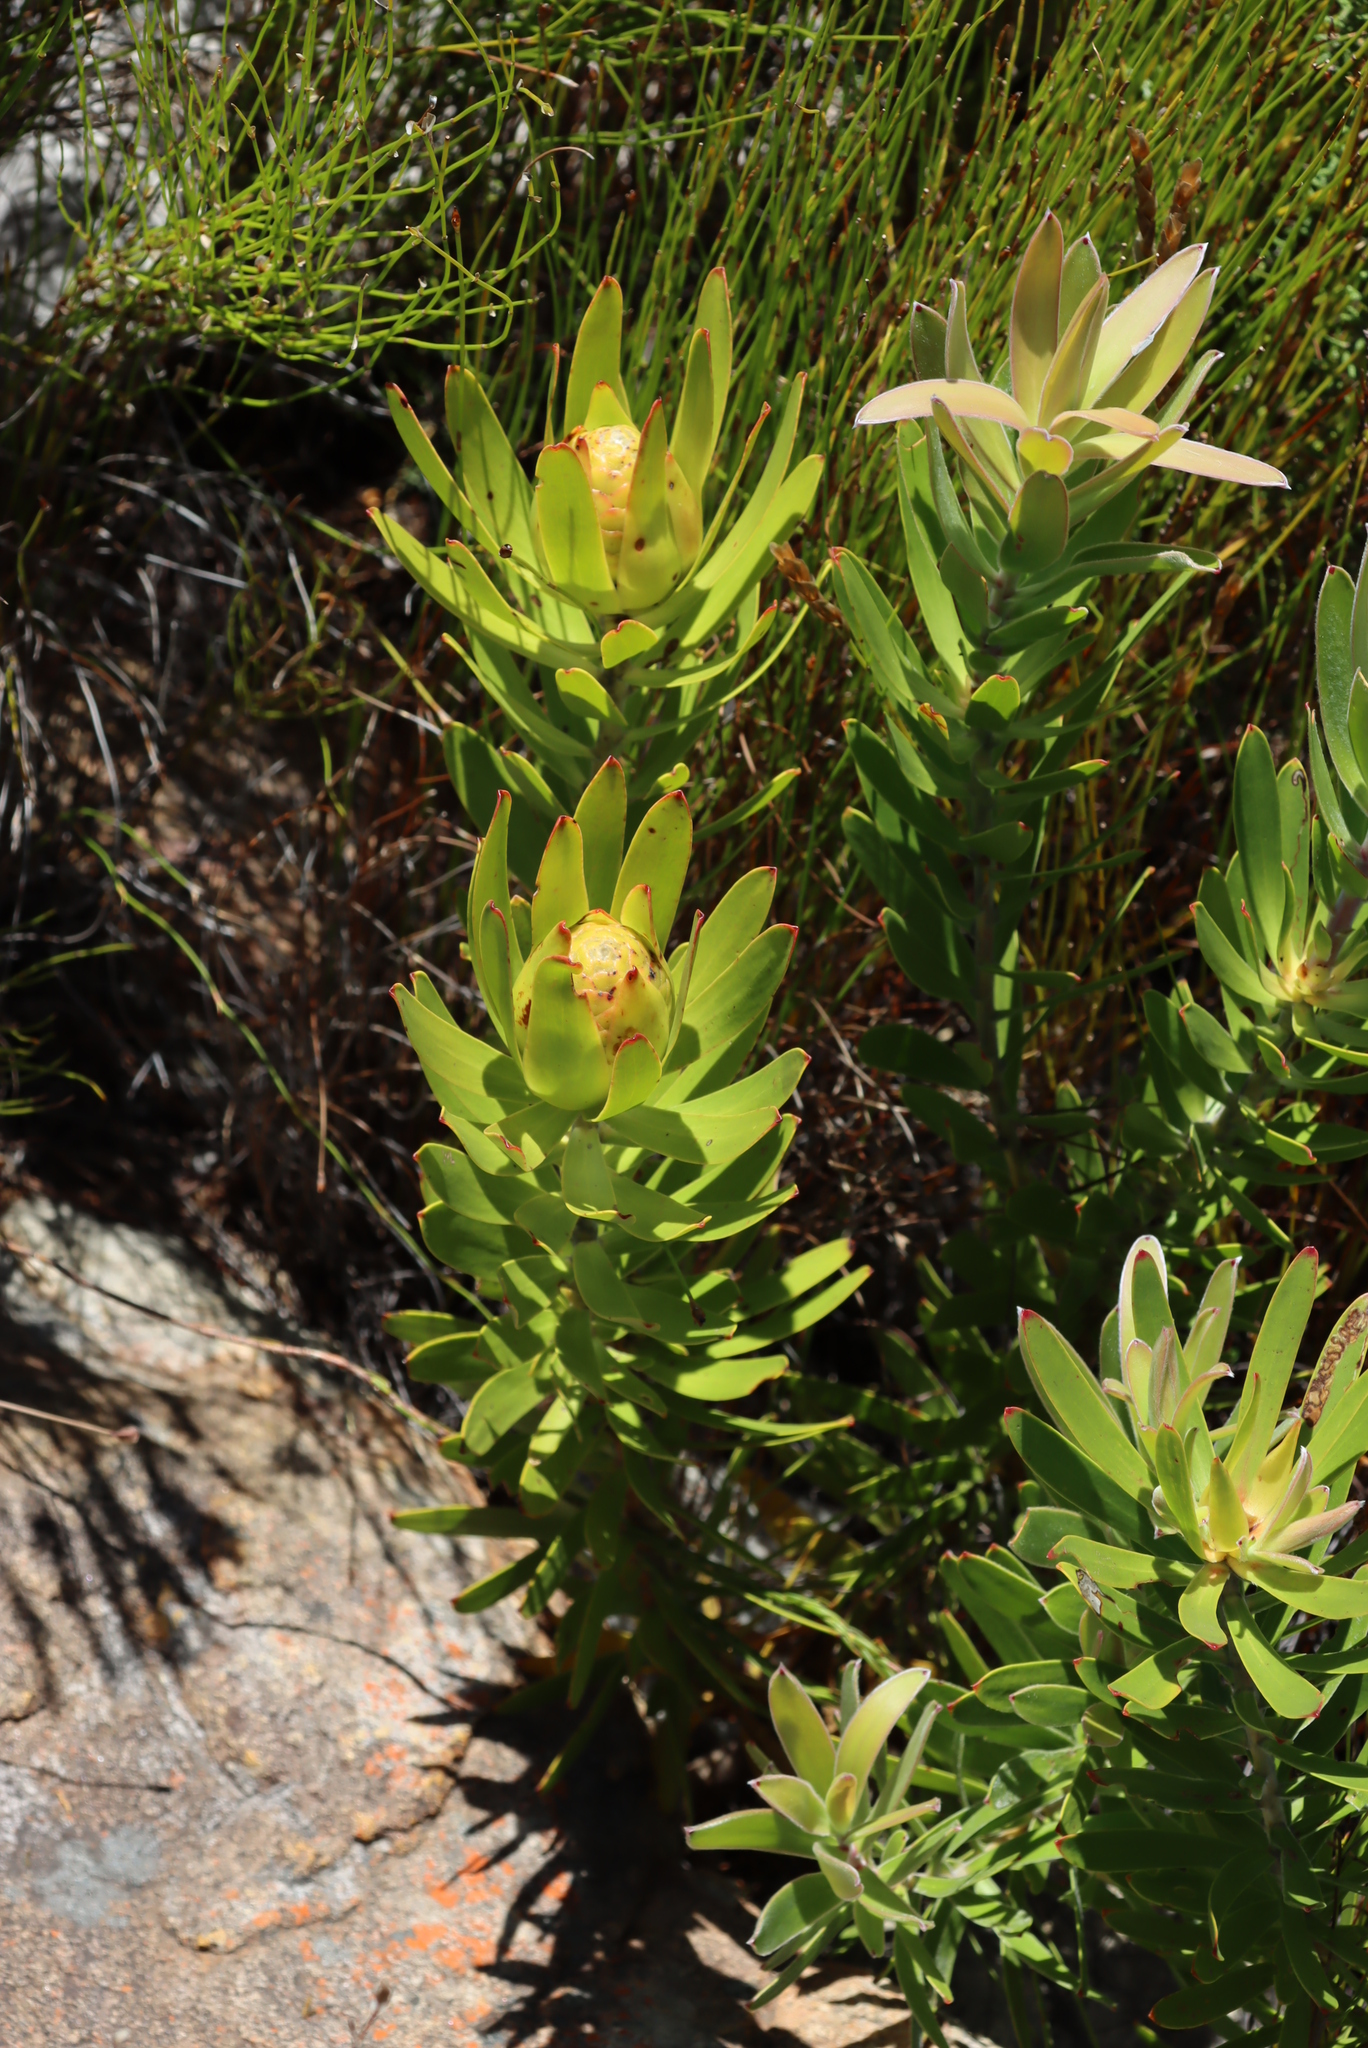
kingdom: Plantae
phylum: Tracheophyta
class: Magnoliopsida
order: Proteales
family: Proteaceae
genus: Leucadendron
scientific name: Leucadendron laureolum
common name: Golden sunshinebush
